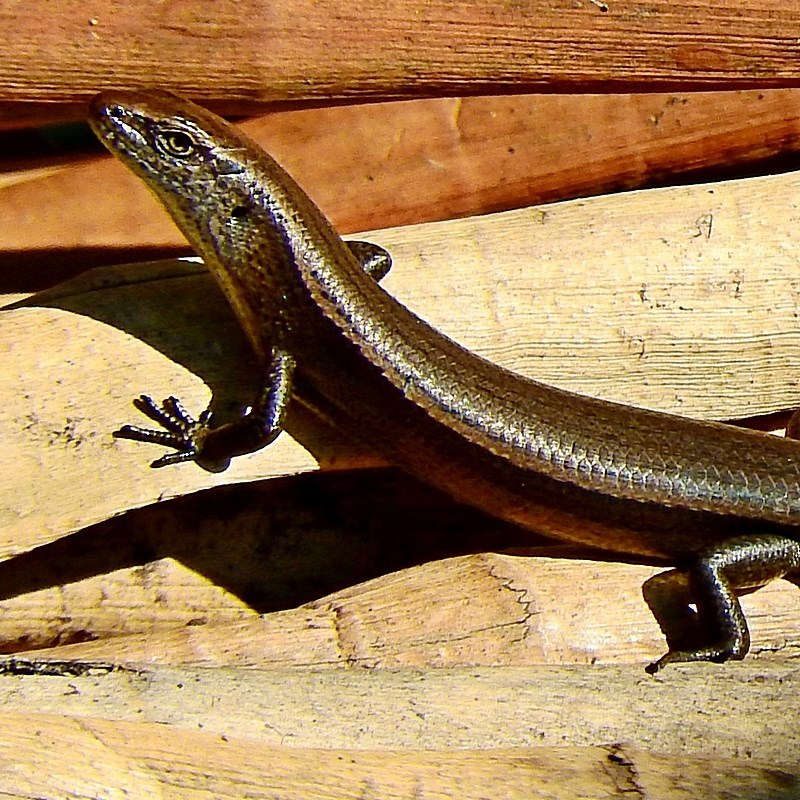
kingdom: Animalia
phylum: Chordata
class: Squamata
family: Scincidae
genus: Lampropholis
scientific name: Lampropholis delicata
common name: Plague skink
